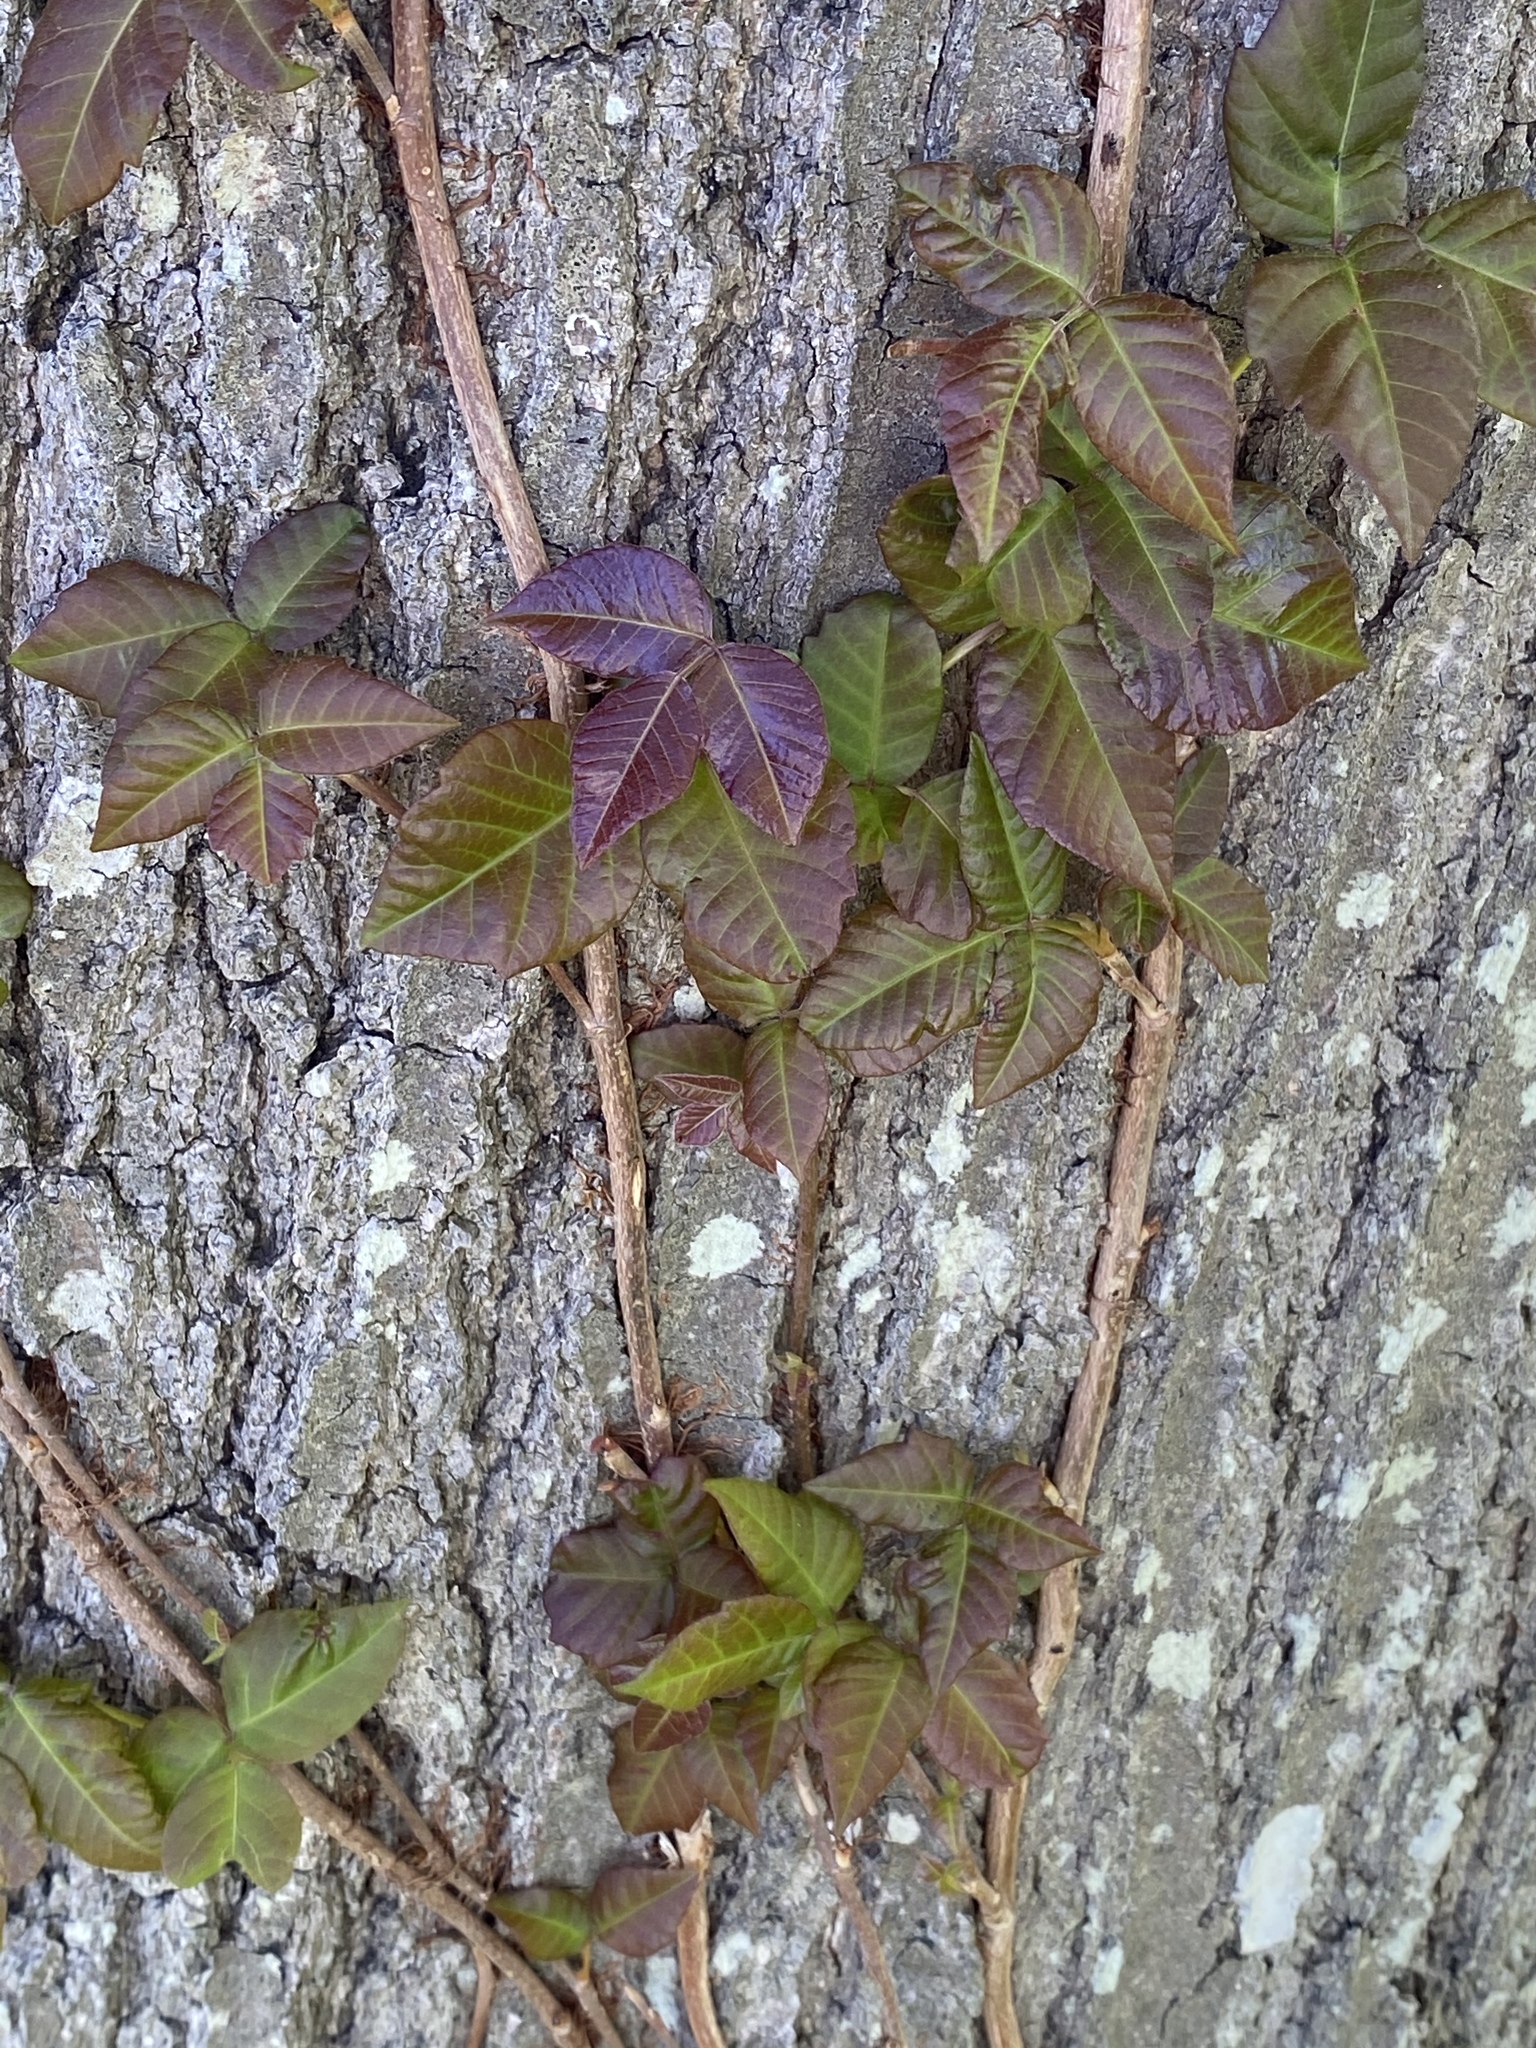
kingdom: Plantae
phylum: Tracheophyta
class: Magnoliopsida
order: Sapindales
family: Anacardiaceae
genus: Toxicodendron
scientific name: Toxicodendron radicans
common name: Poison ivy
